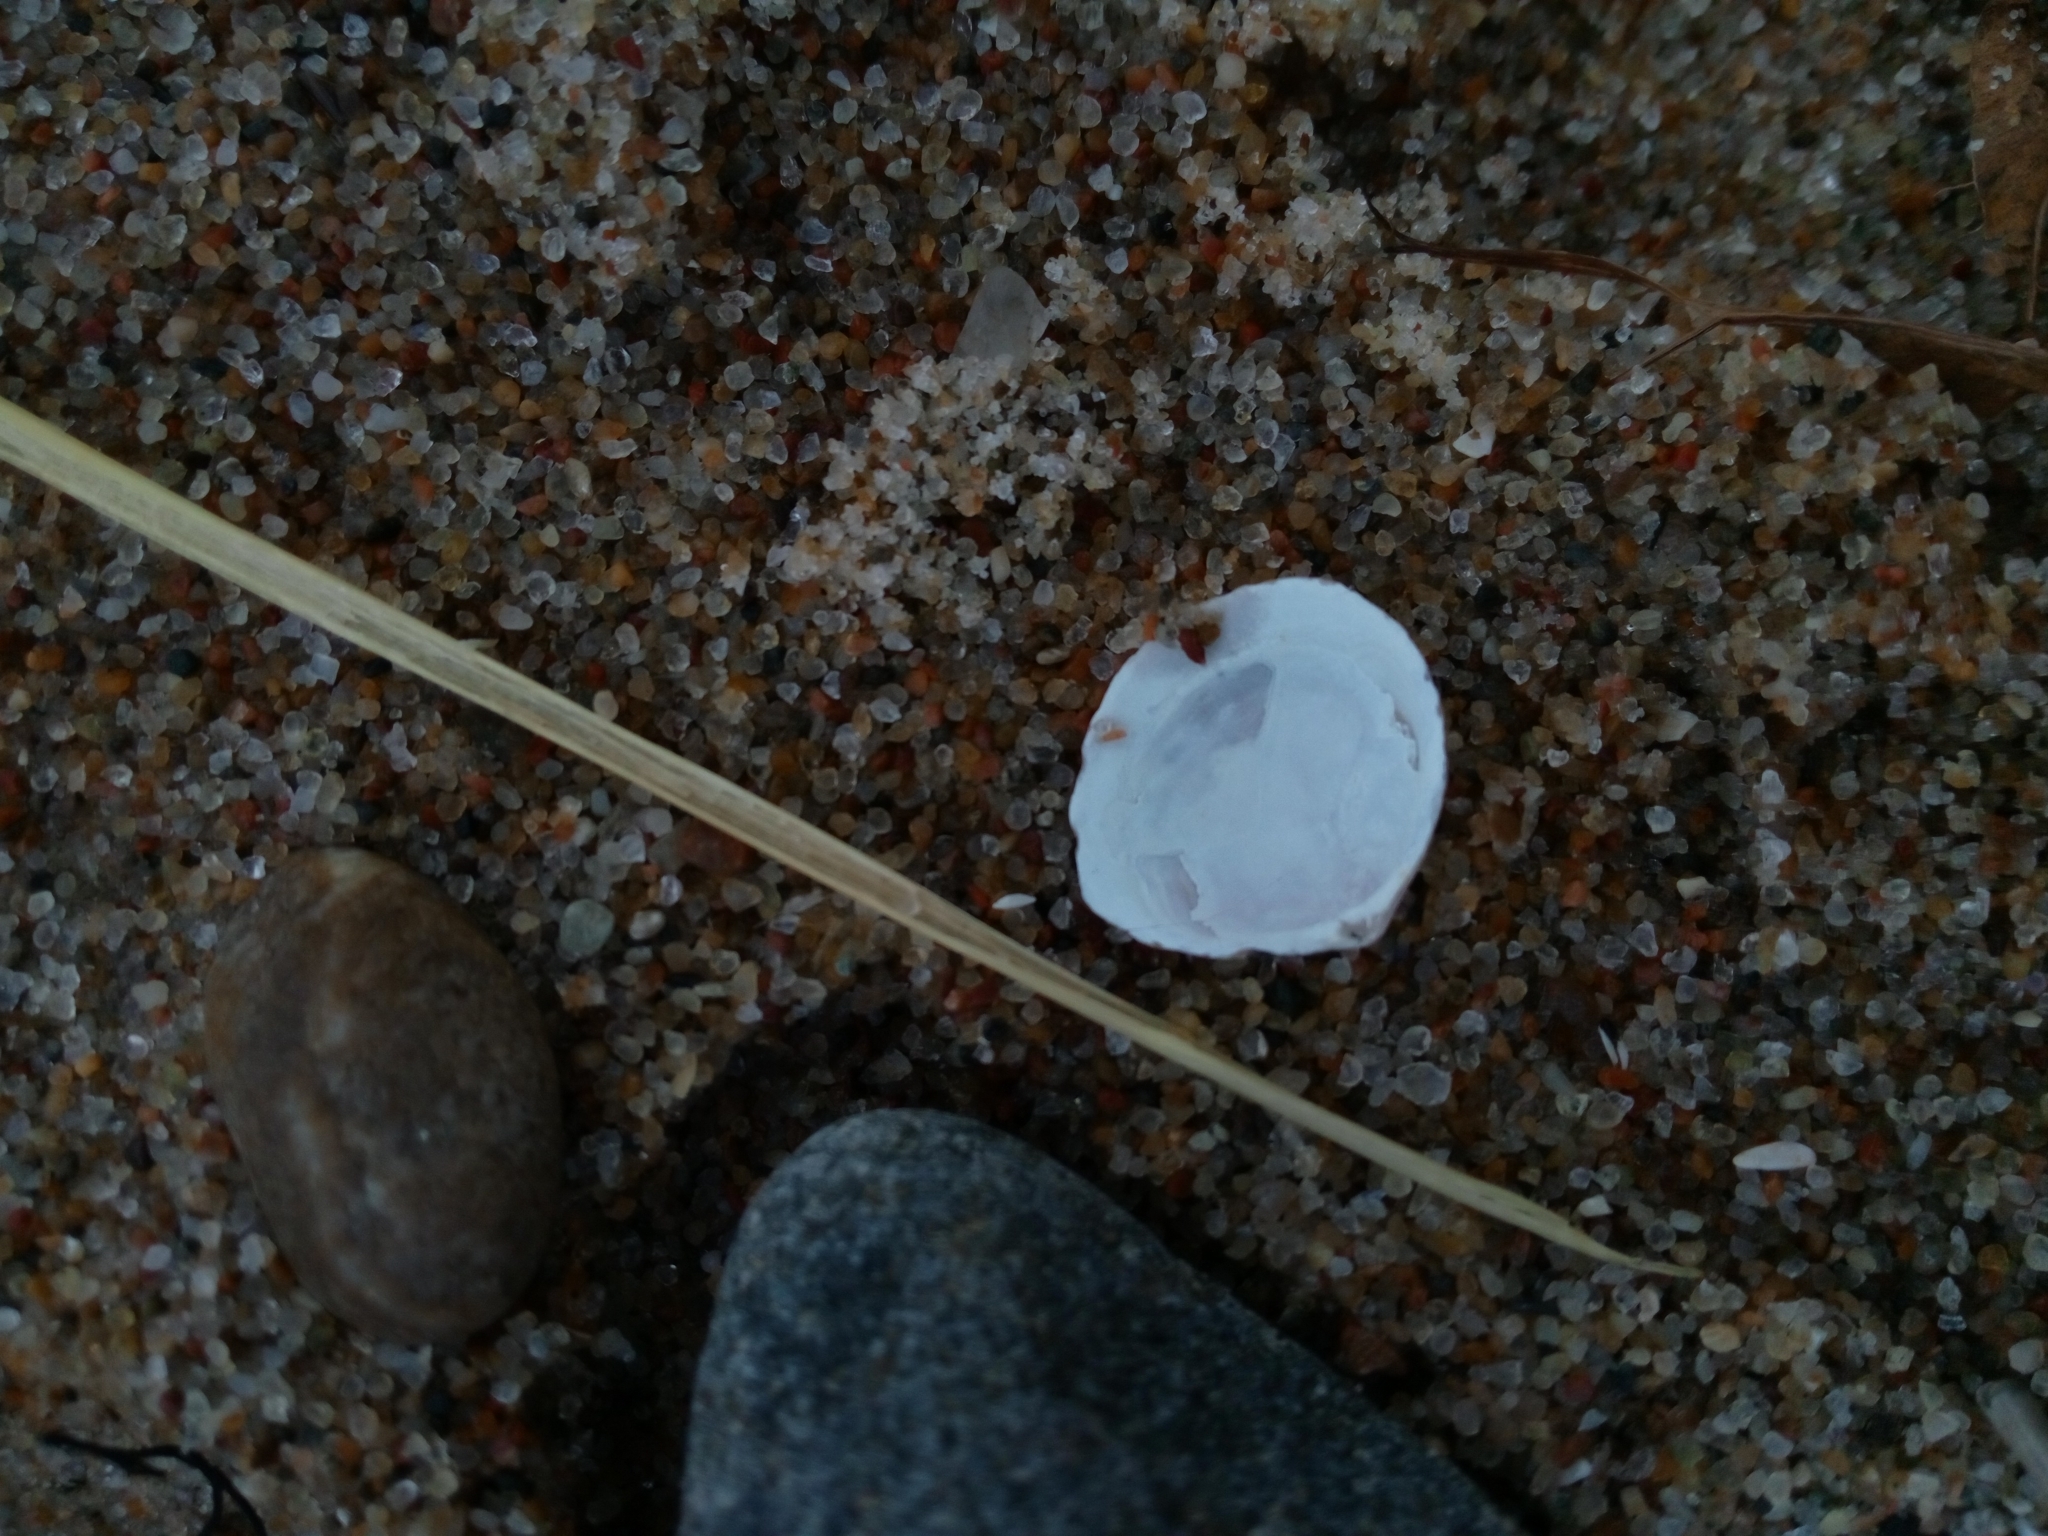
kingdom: Animalia
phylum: Mollusca
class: Bivalvia
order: Cardiida
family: Tellinidae
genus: Macoma
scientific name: Macoma balthica
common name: Baltic tellin
